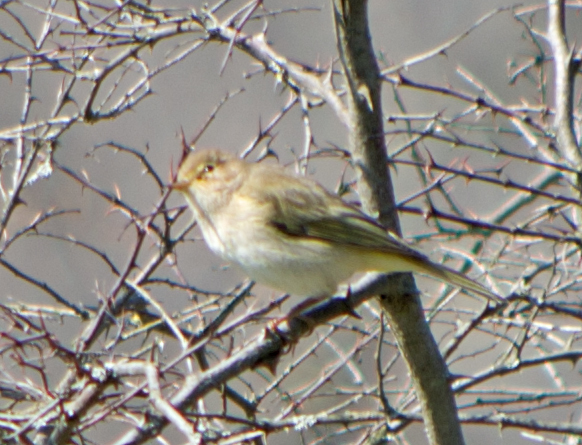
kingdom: Animalia
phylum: Chordata
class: Aves
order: Passeriformes
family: Phylloscopidae
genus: Phylloscopus
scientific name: Phylloscopus trochilus
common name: Willow warbler
